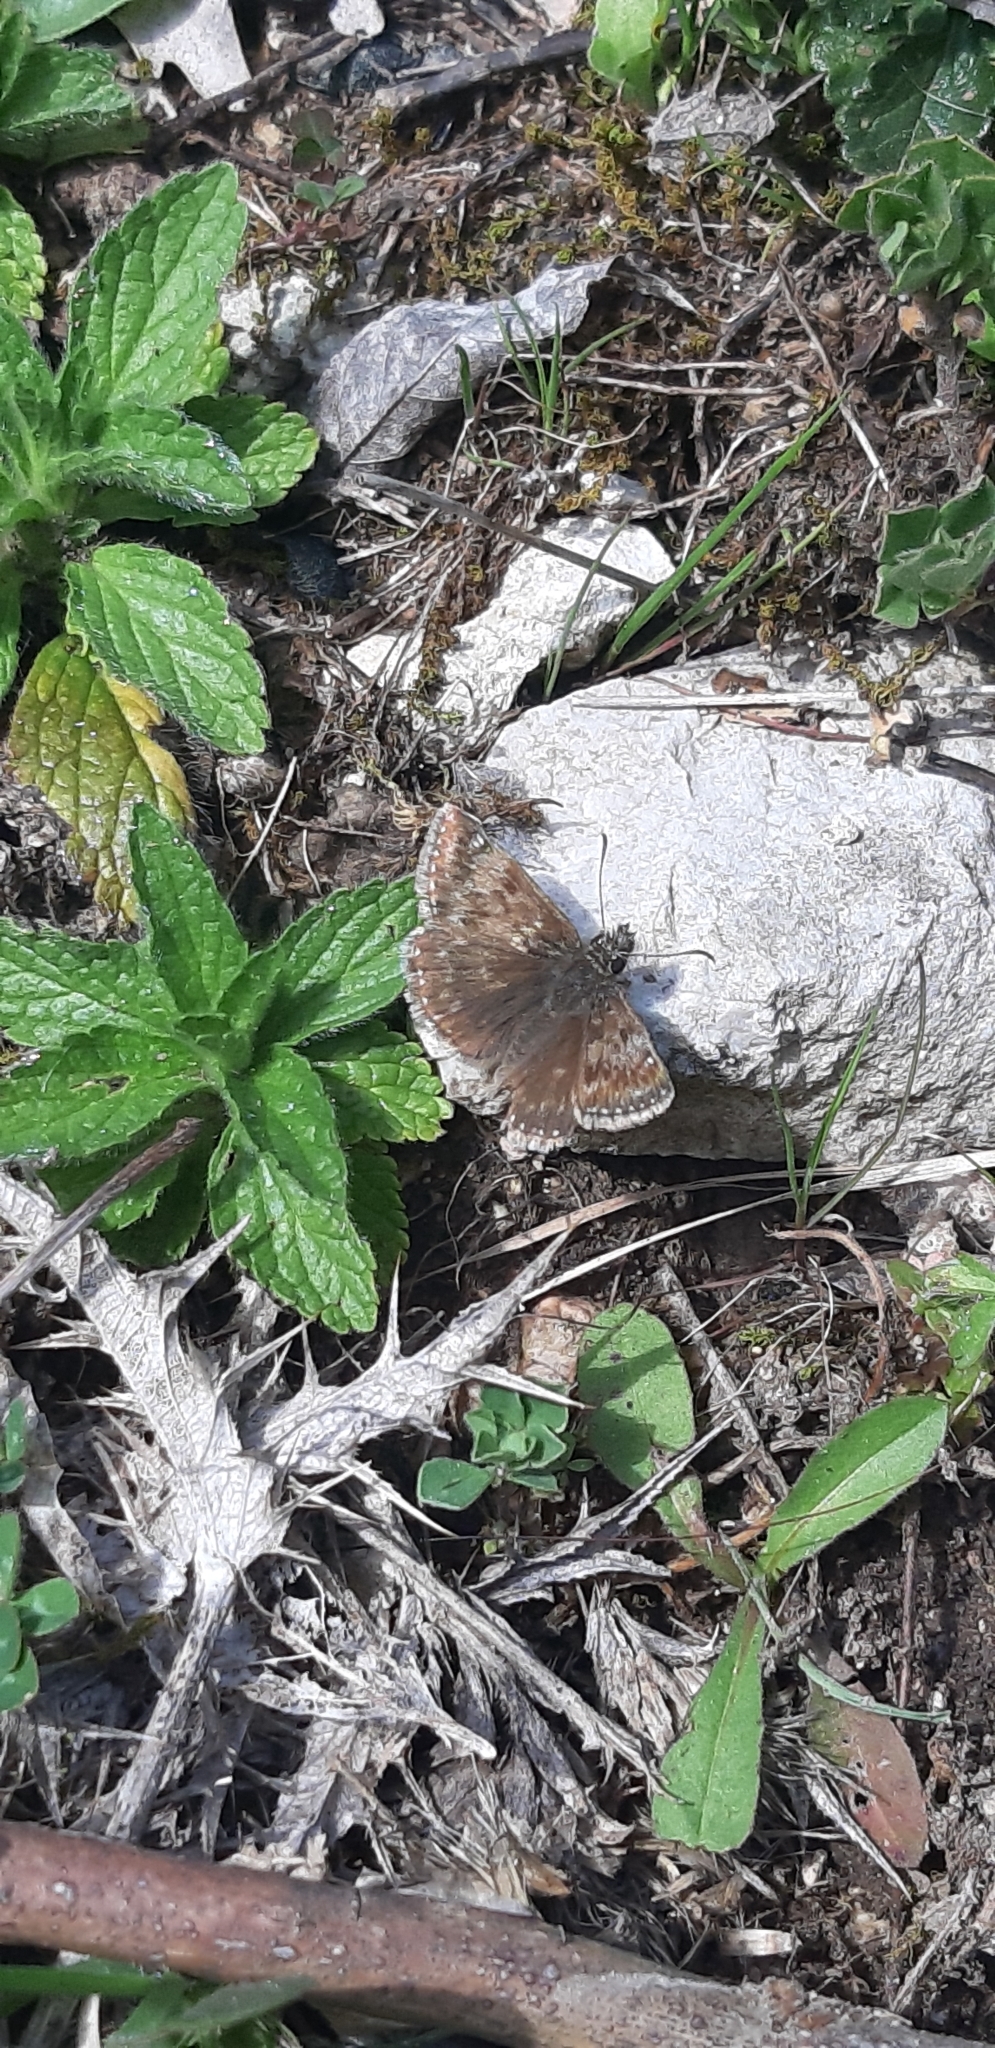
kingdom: Animalia
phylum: Arthropoda
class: Insecta
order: Lepidoptera
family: Hesperiidae
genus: Erynnis
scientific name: Erynnis tages
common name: Dingy skipper
